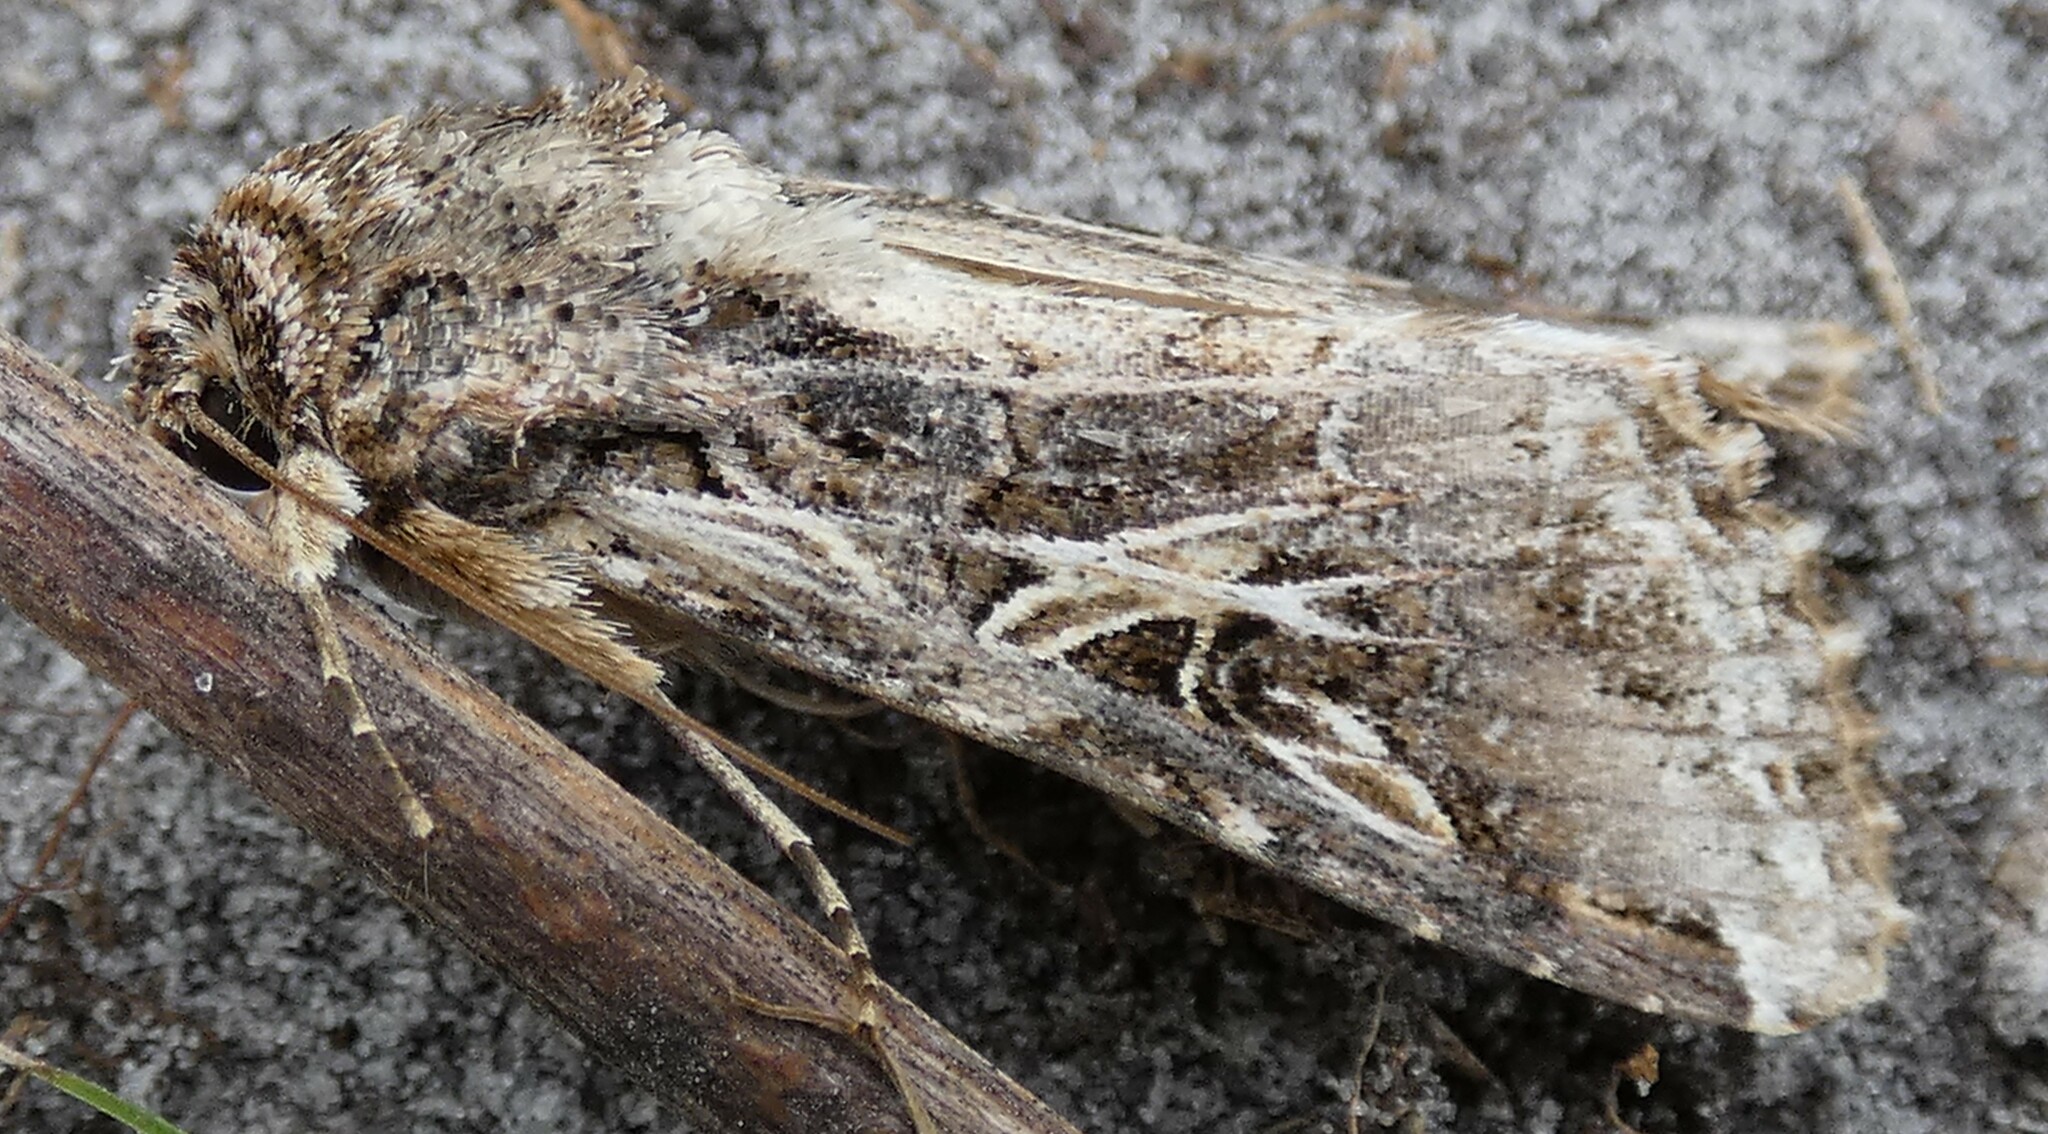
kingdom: Animalia
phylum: Arthropoda
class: Insecta
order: Lepidoptera
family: Noctuidae
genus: Spodoptera
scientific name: Spodoptera ornithogalli
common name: Yellow-striped armyworm
